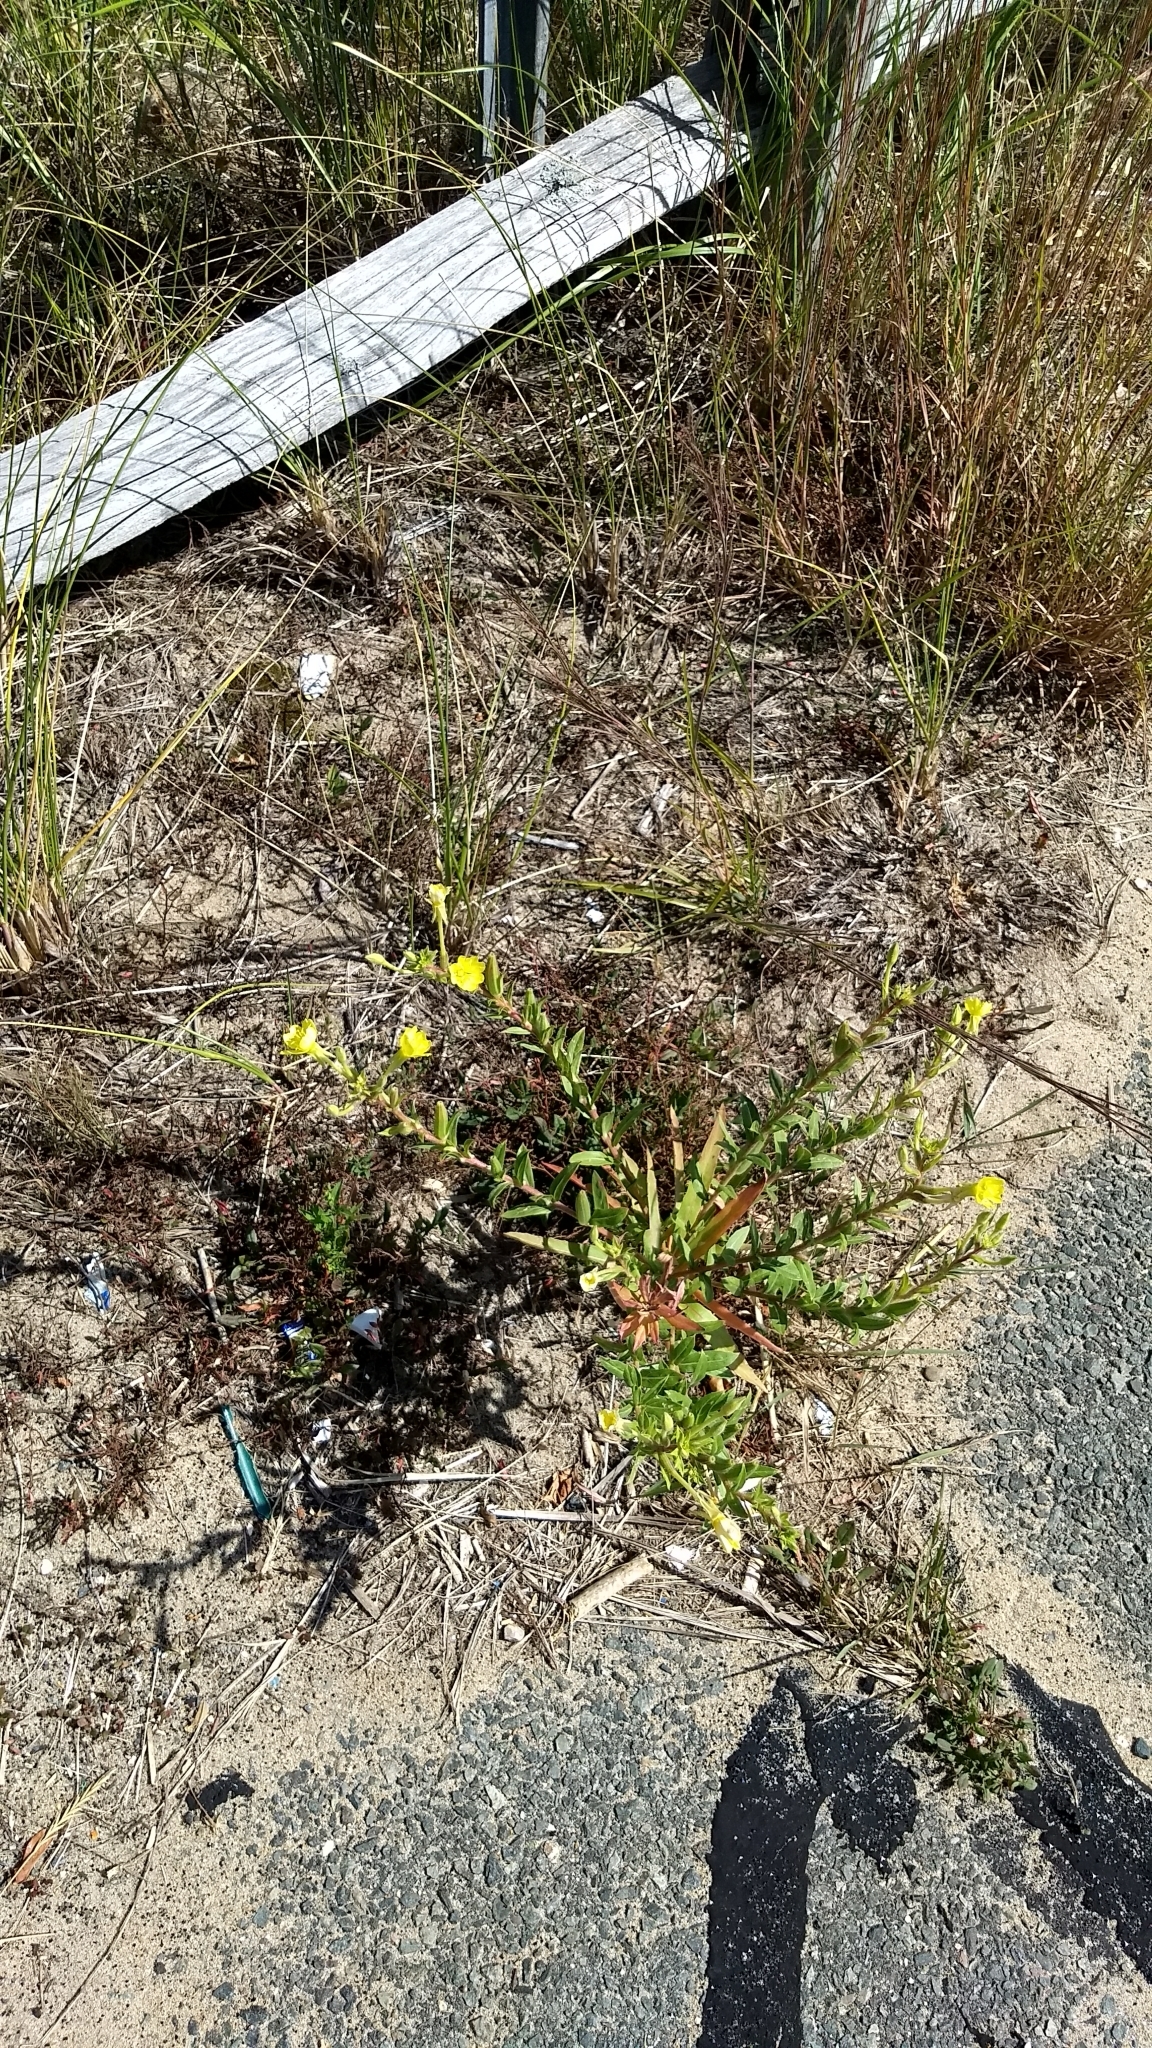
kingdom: Plantae
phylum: Tracheophyta
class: Magnoliopsida
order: Myrtales
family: Onagraceae
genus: Oenothera
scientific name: Oenothera biennis
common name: Common evening-primrose
